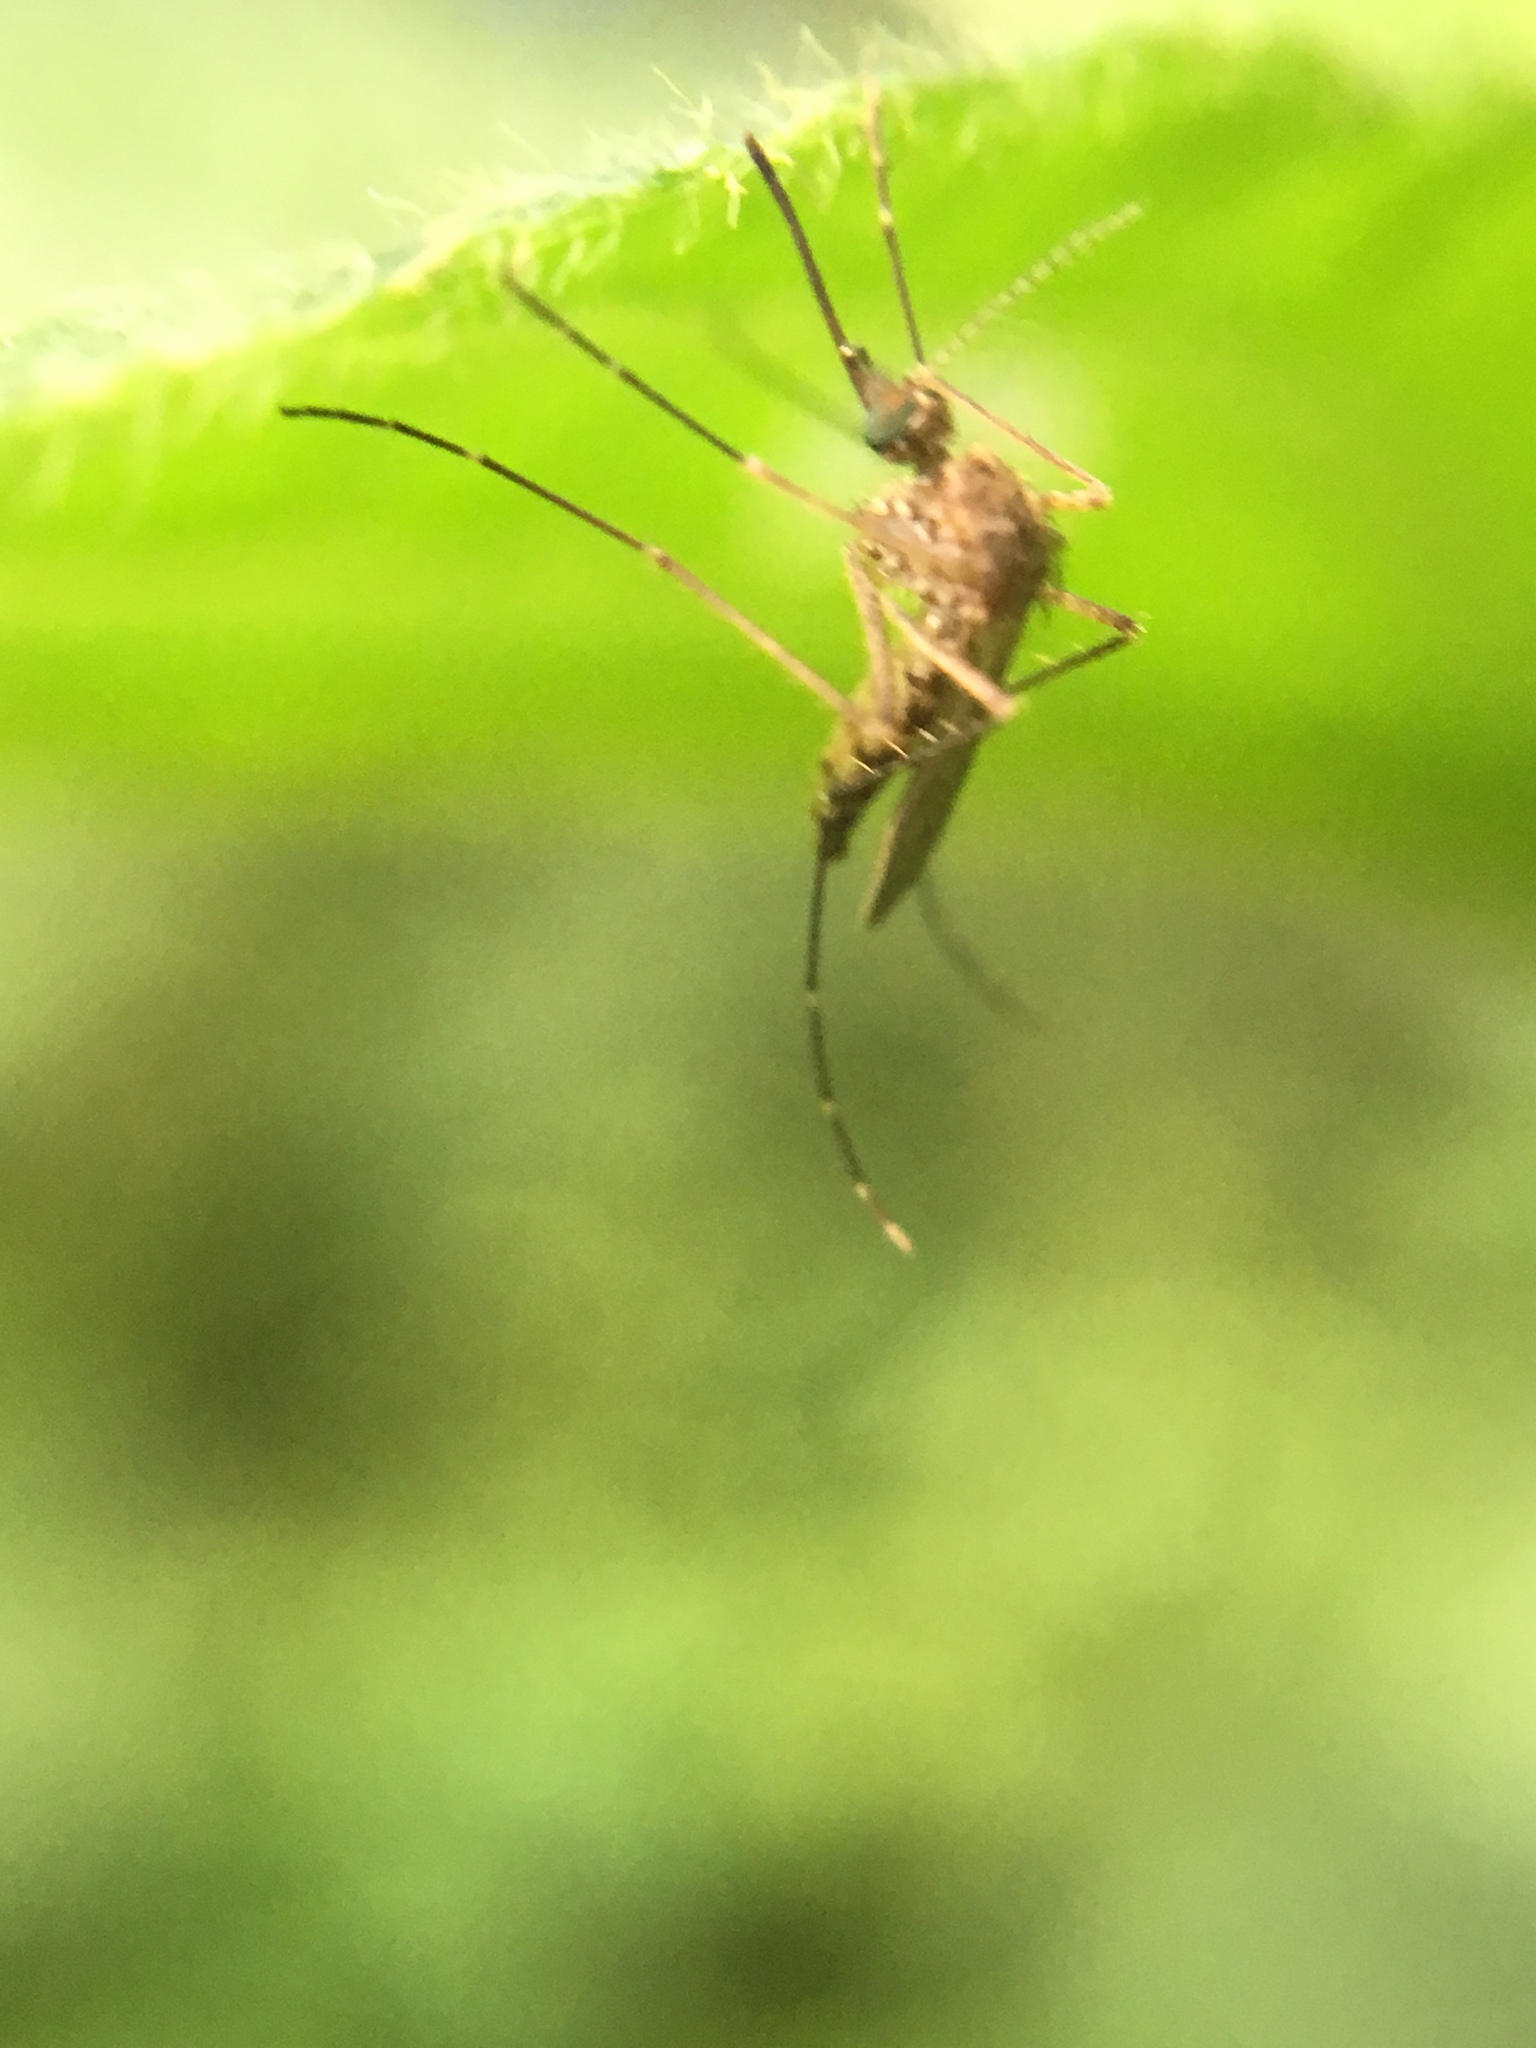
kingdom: Animalia
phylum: Arthropoda
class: Insecta
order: Diptera
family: Culicidae
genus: Aedes
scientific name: Aedes vexans
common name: Inland floodwater mosquito
